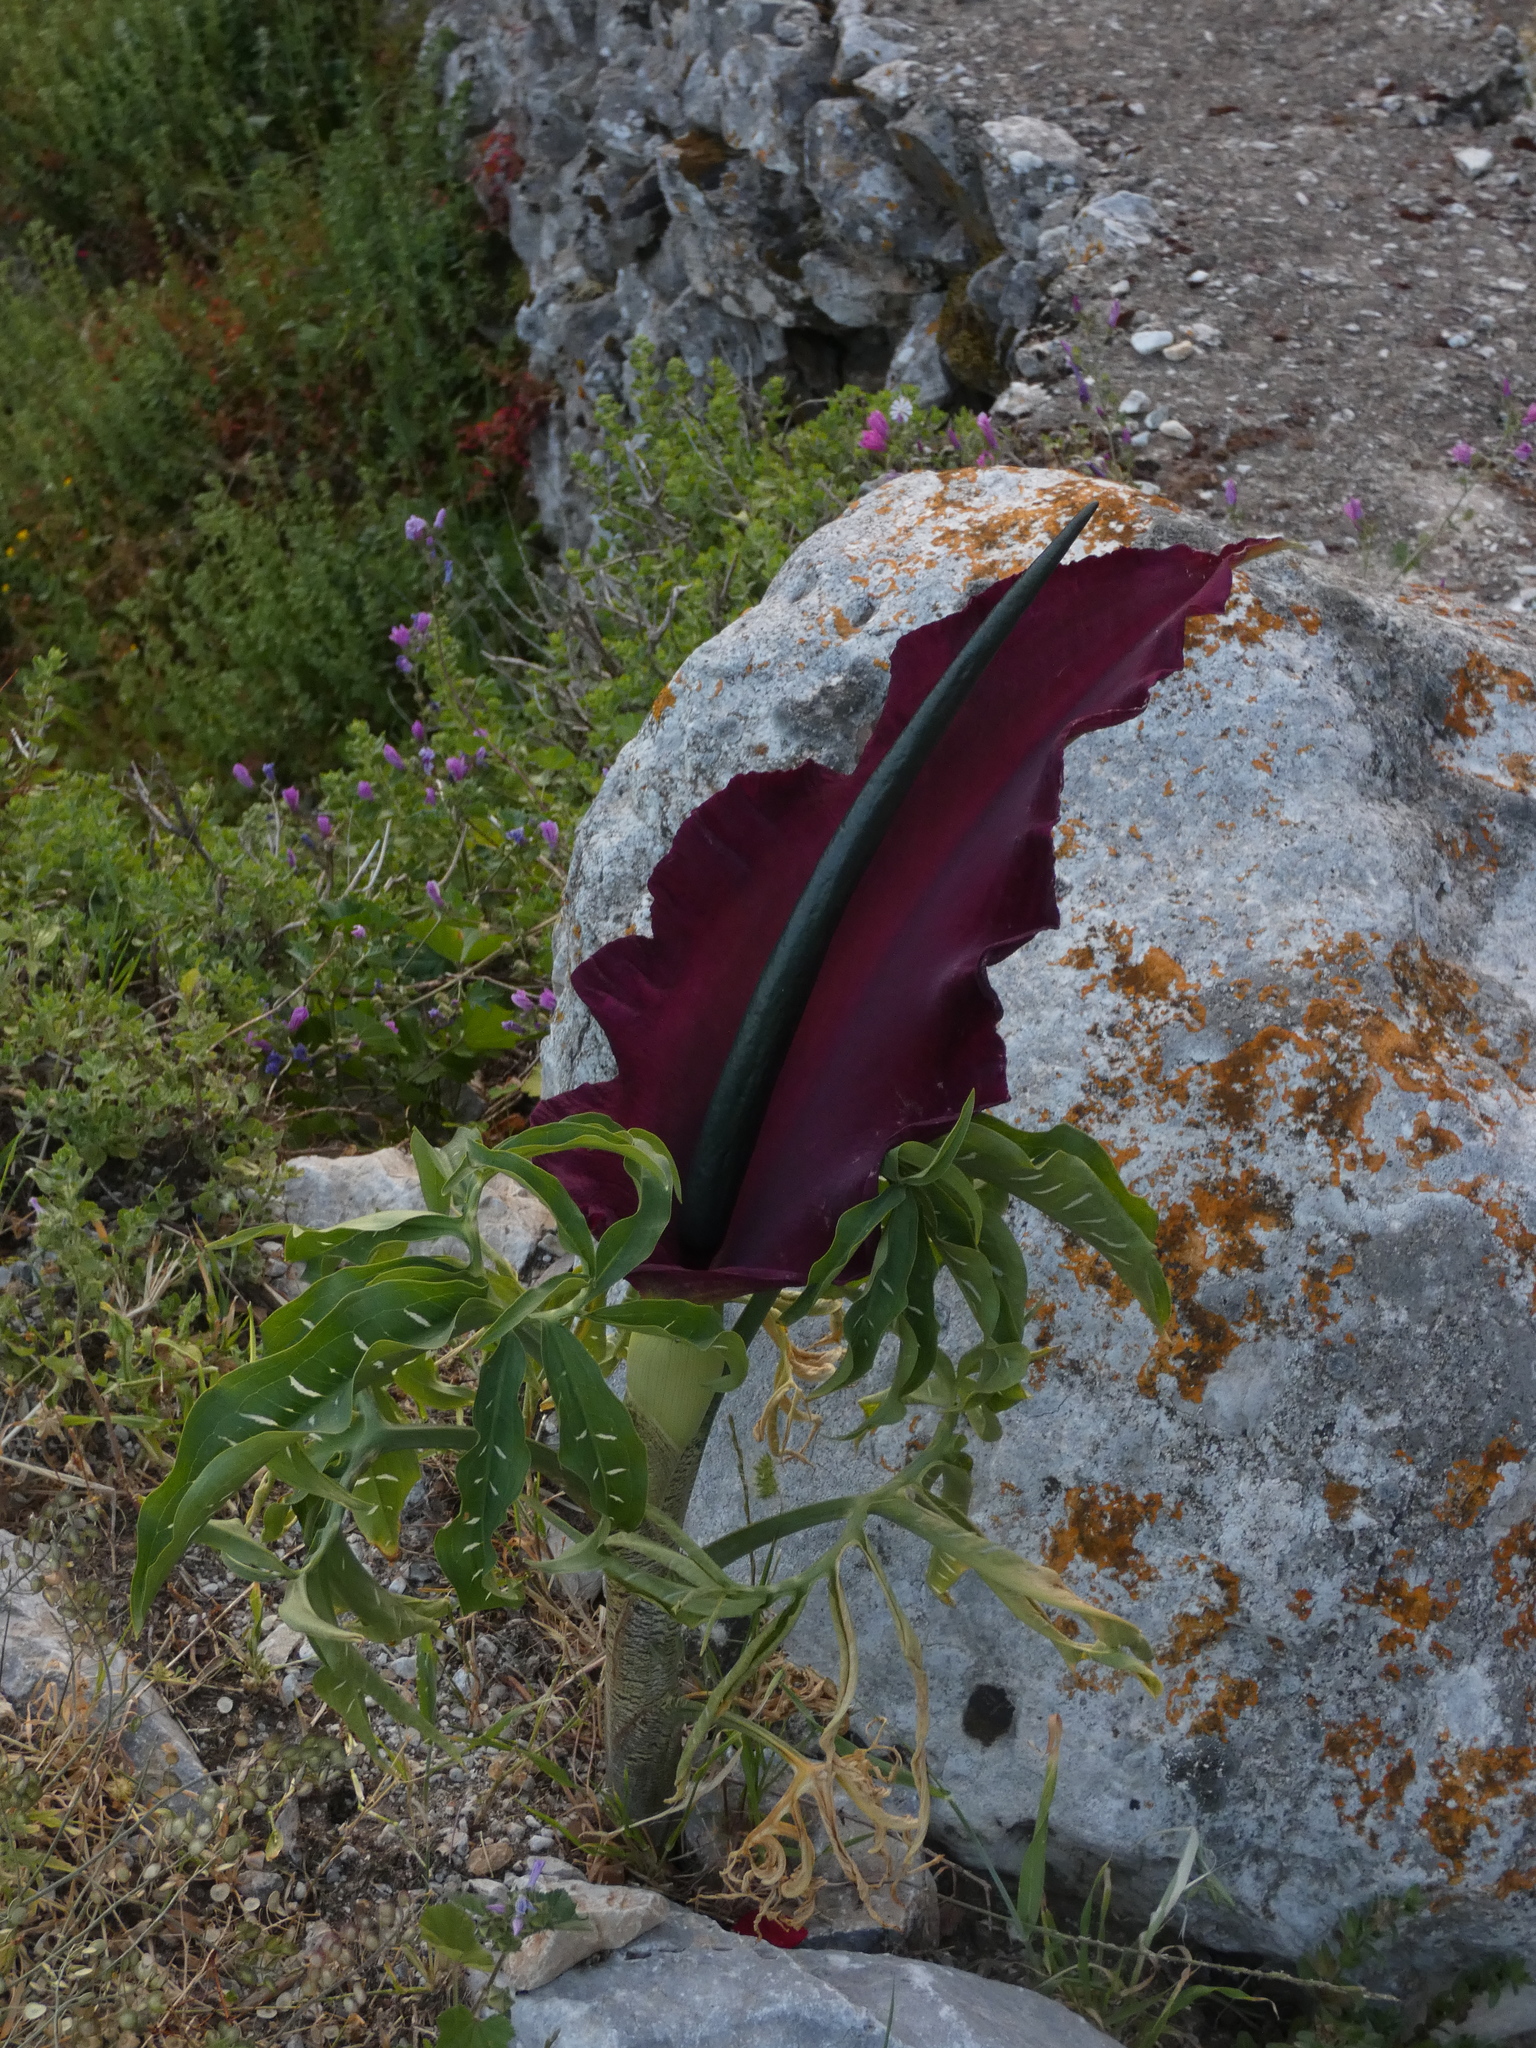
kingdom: Plantae
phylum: Tracheophyta
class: Liliopsida
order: Alismatales
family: Araceae
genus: Dracunculus
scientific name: Dracunculus vulgaris
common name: Dragon arum
